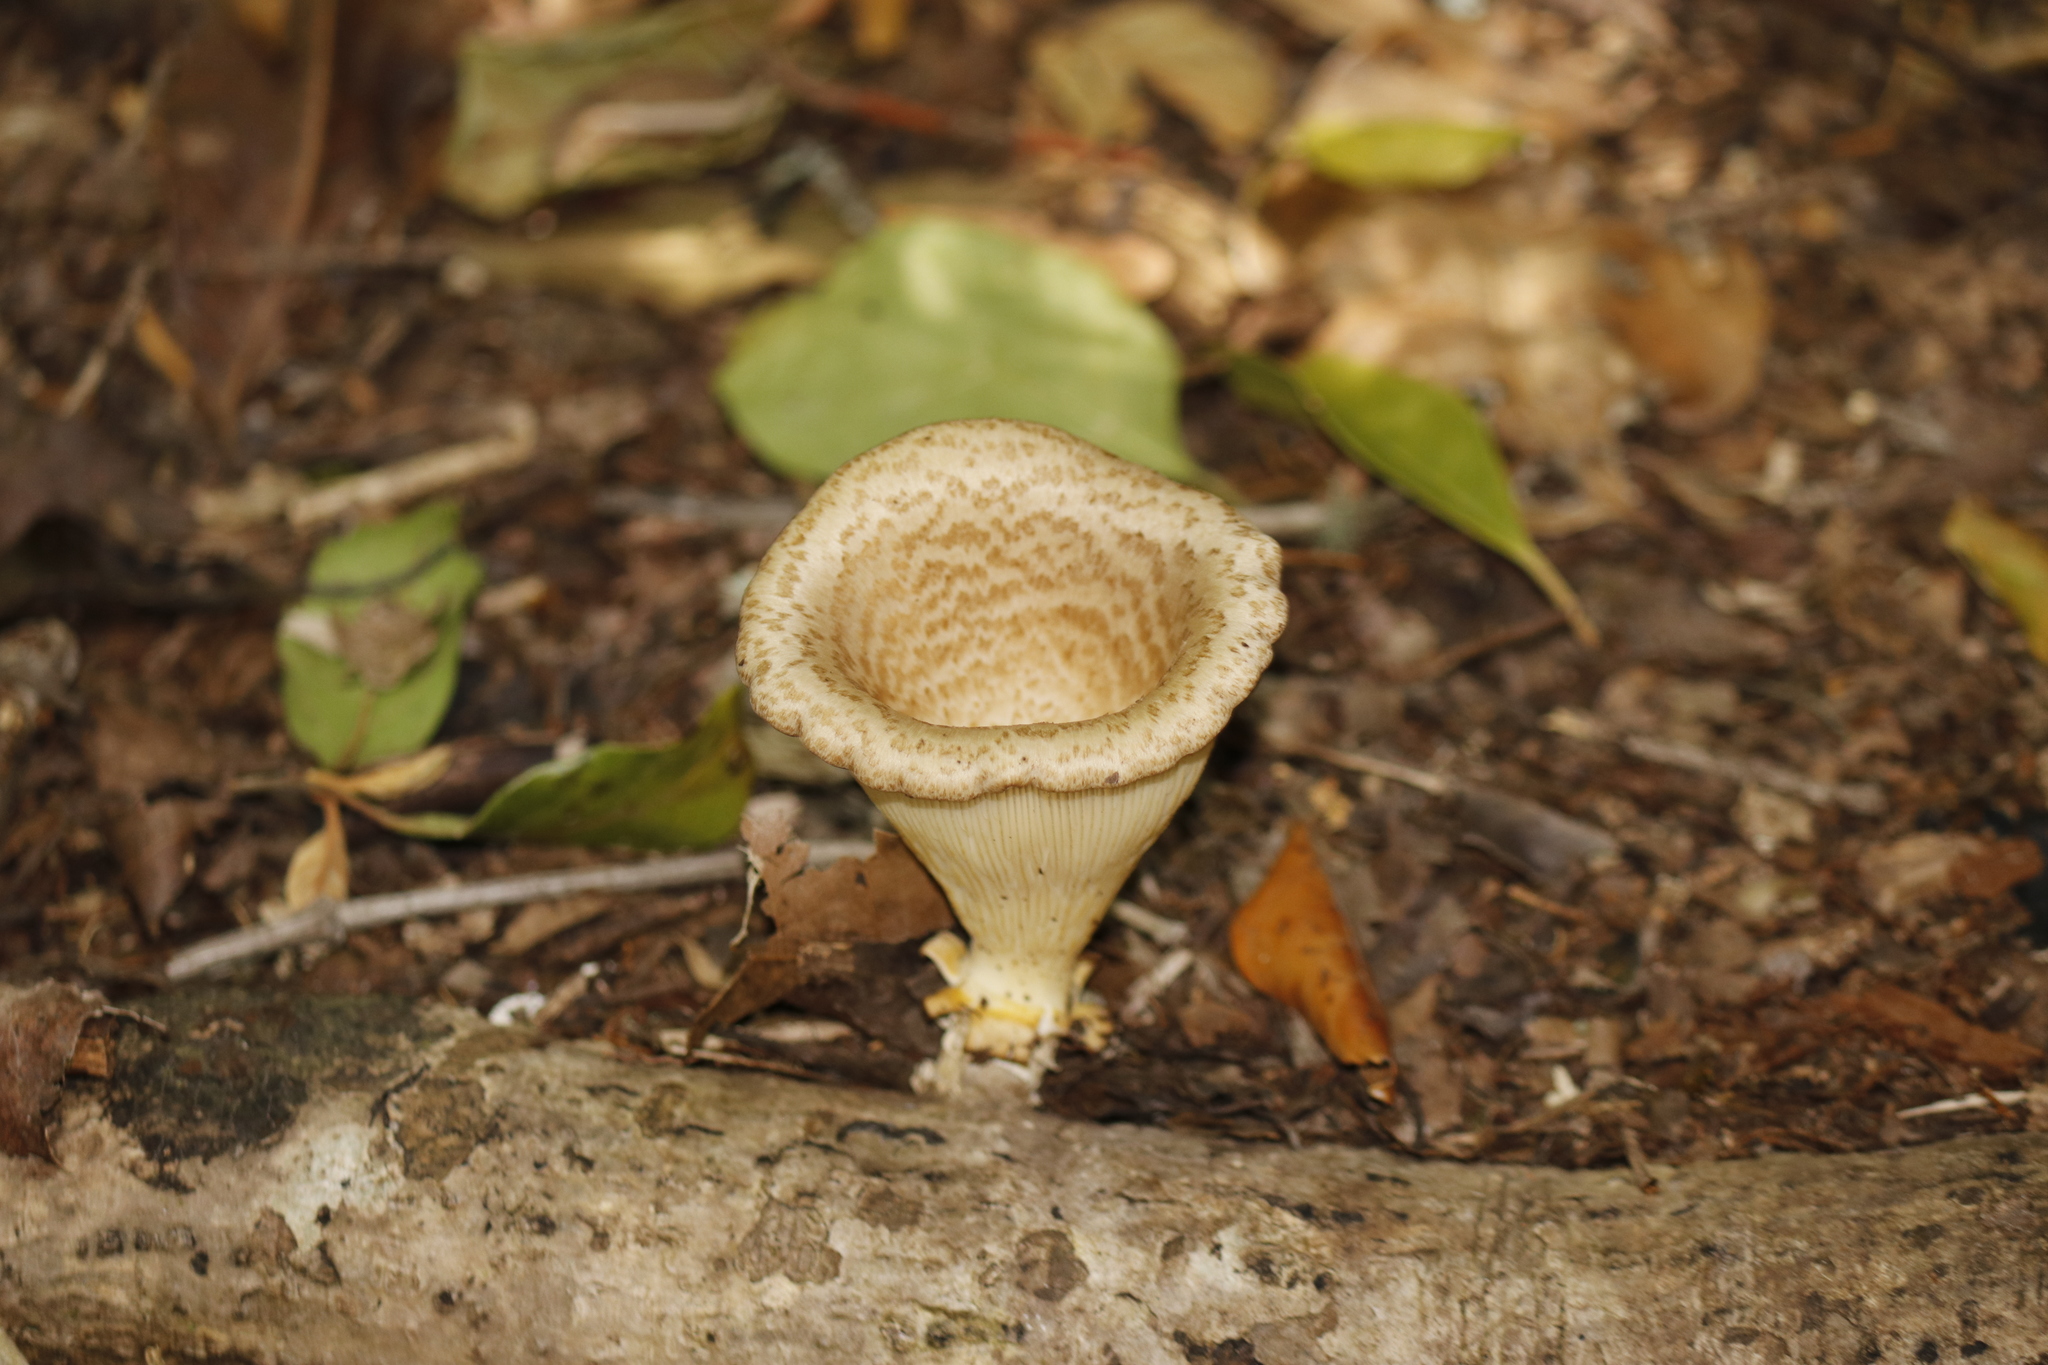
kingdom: Fungi
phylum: Basidiomycota
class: Agaricomycetes
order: Polyporales
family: Polyporaceae
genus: Lentinus
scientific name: Lentinus sajor-caju
